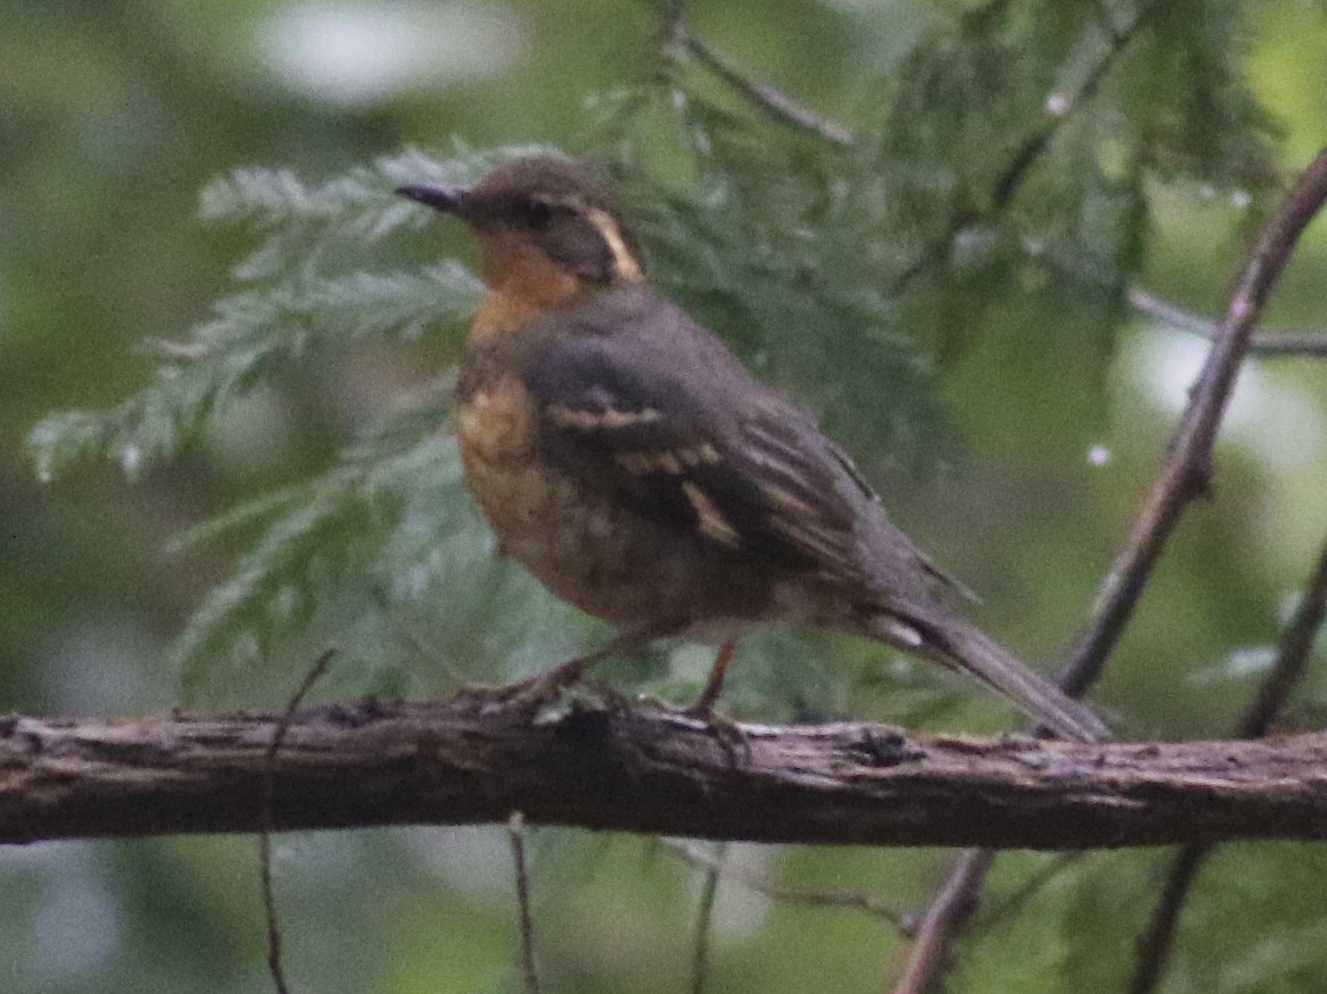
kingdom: Animalia
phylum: Chordata
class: Aves
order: Passeriformes
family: Turdidae
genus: Ixoreus
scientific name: Ixoreus naevius
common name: Varied thrush
